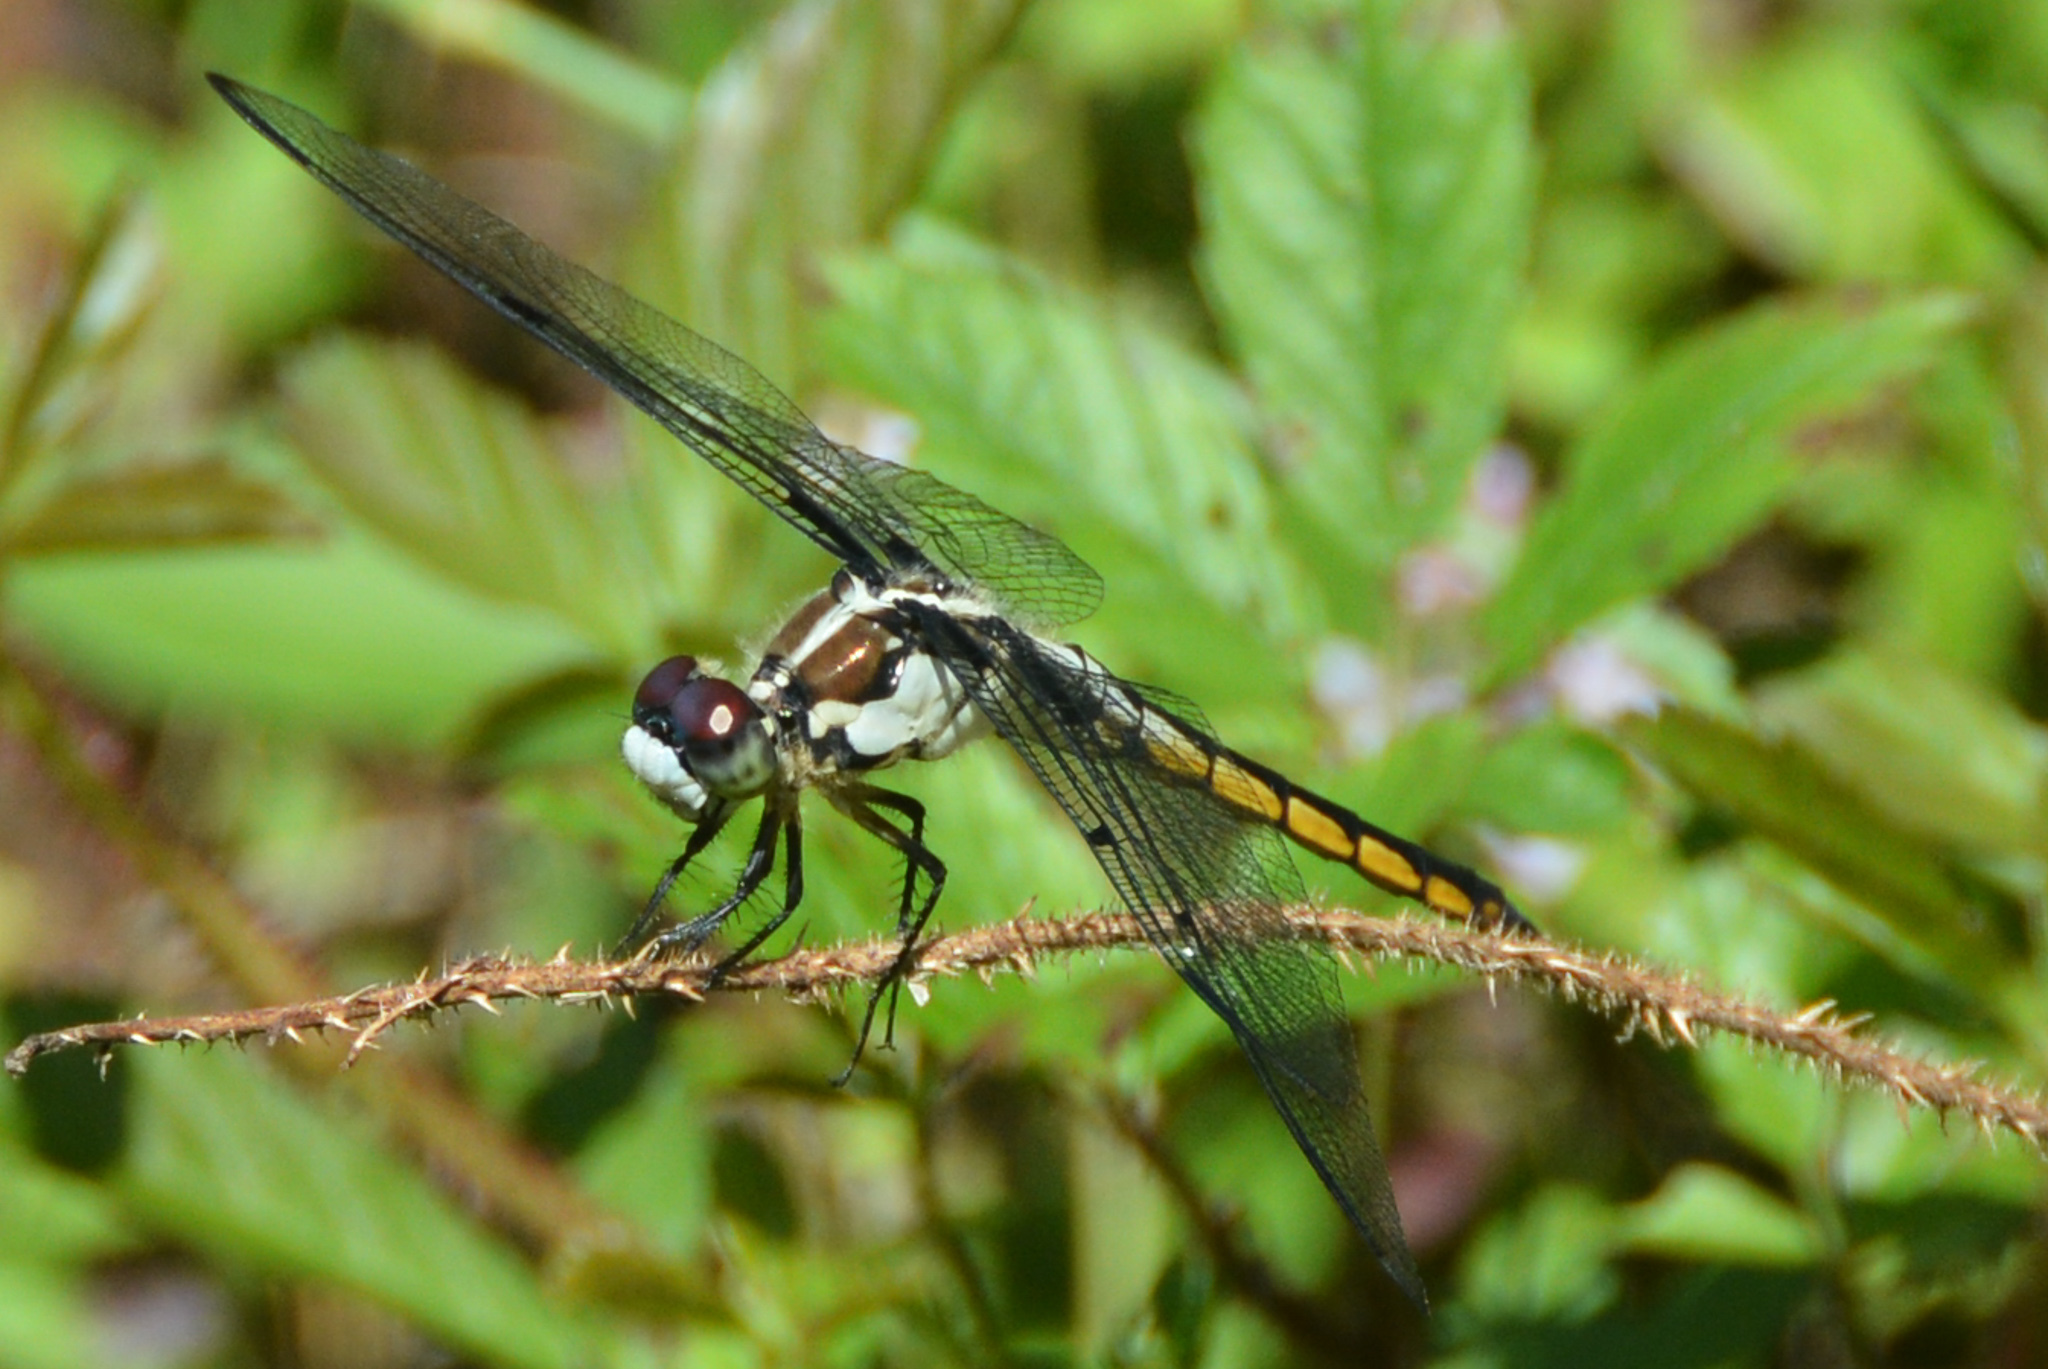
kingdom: Animalia
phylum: Arthropoda
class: Insecta
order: Odonata
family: Libellulidae
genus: Libellula
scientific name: Libellula vibrans
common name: Great blue skimmer
